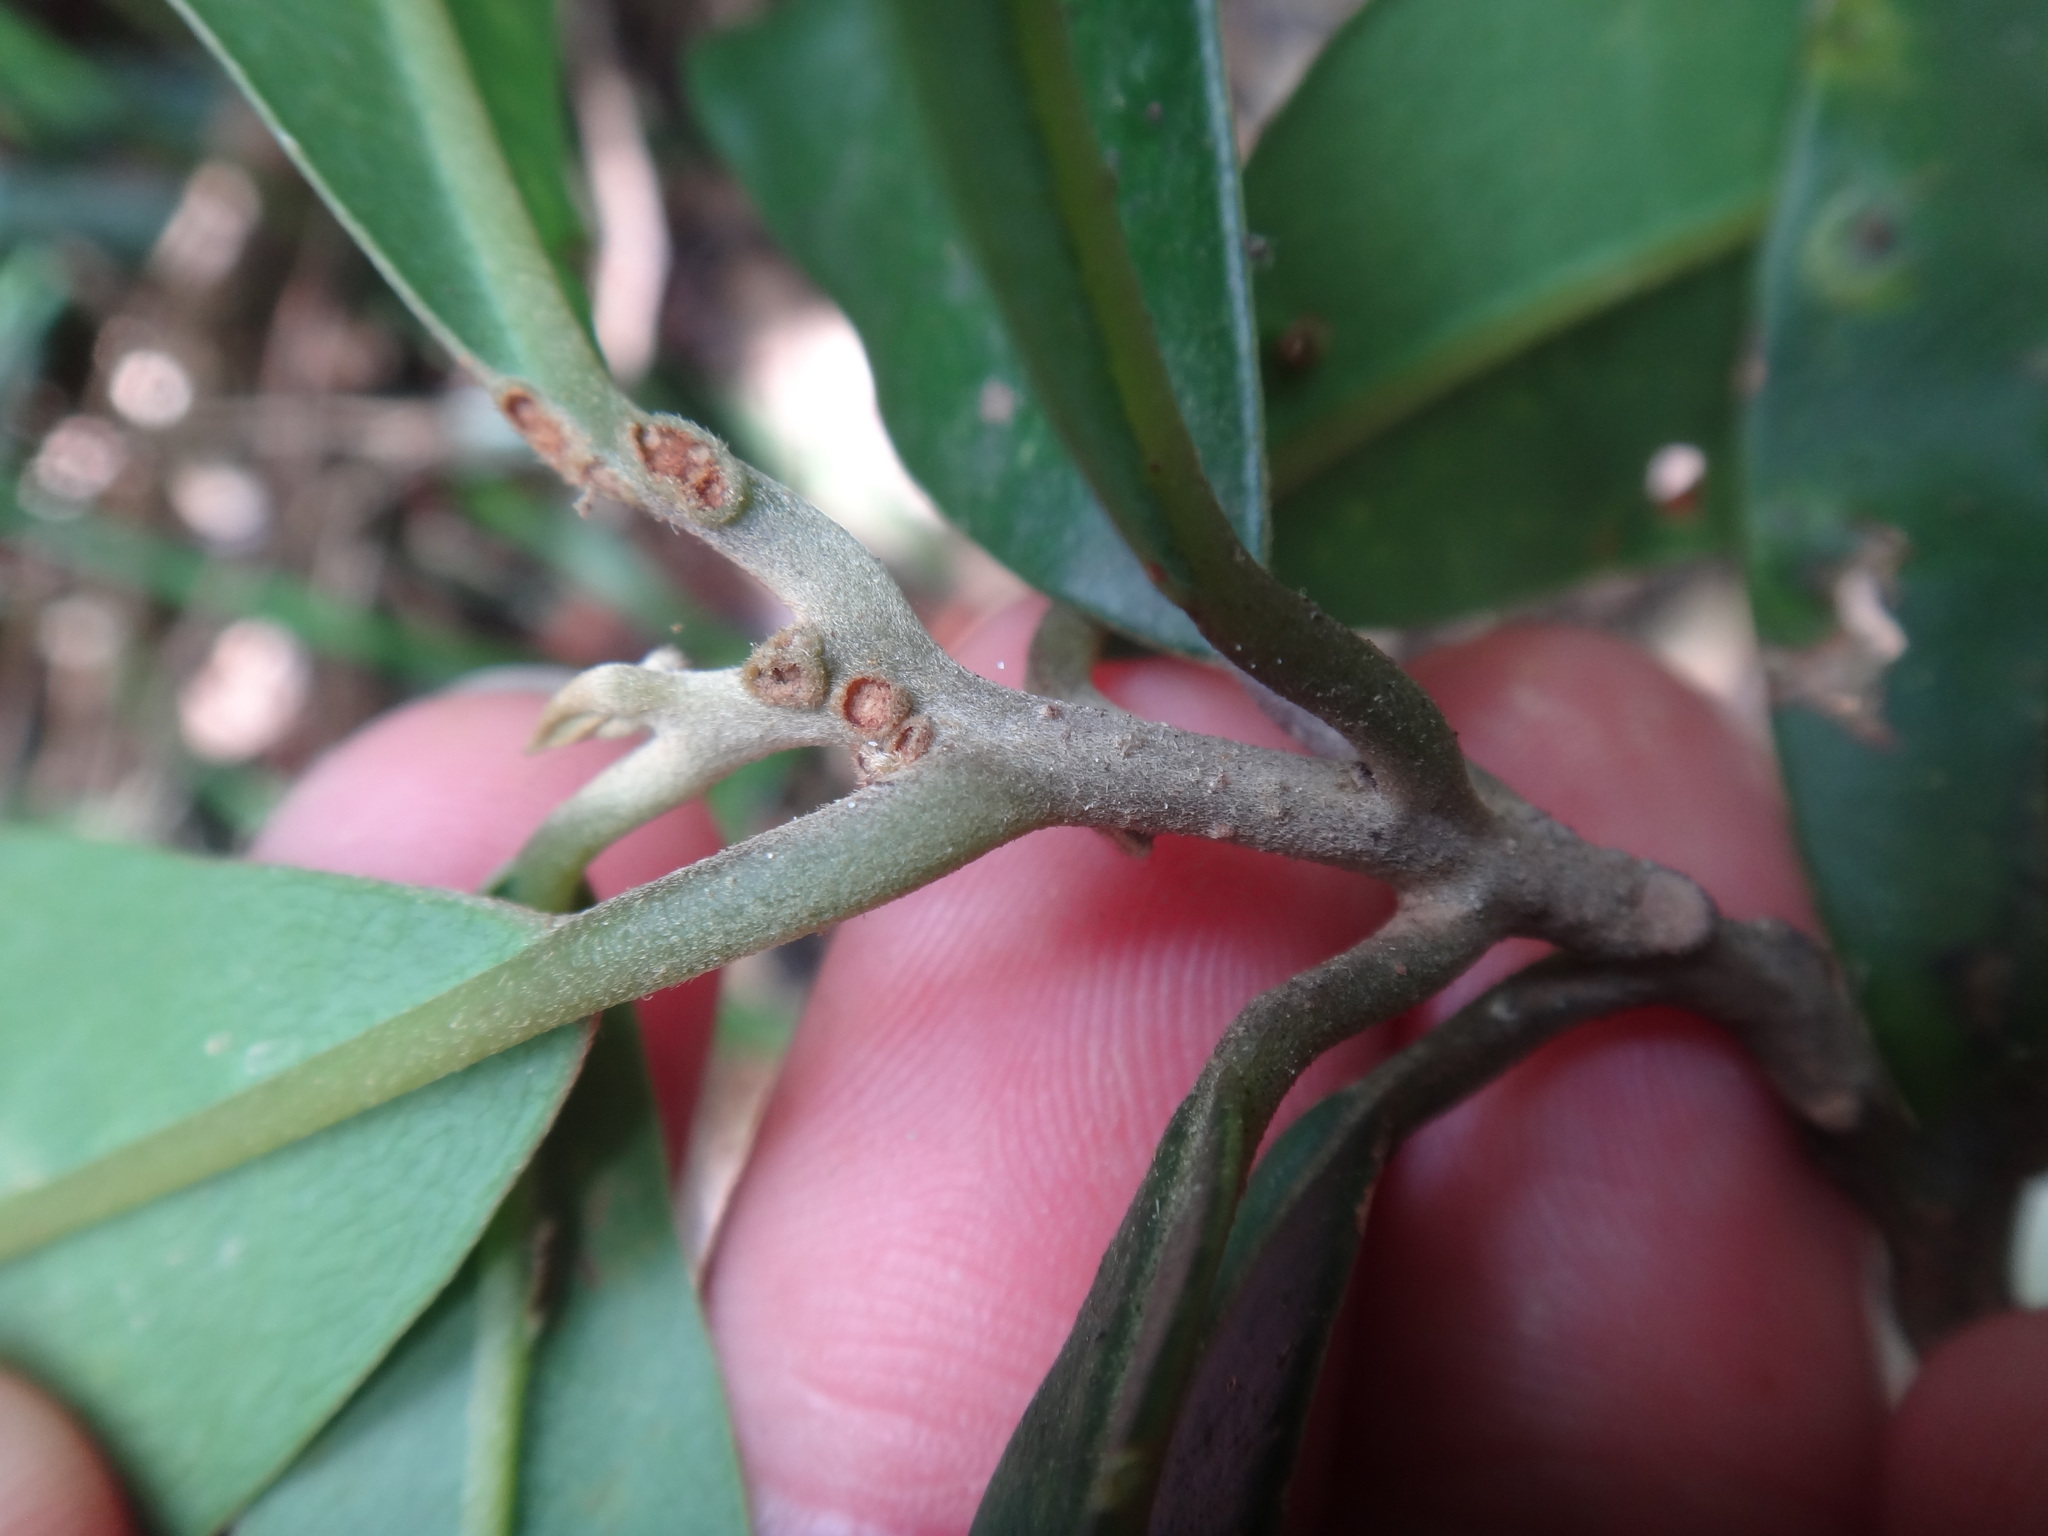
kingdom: Plantae
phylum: Tracheophyta
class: Magnoliopsida
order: Laurales
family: Lauraceae
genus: Beilschmiedia
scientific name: Beilschmiedia tsangii
